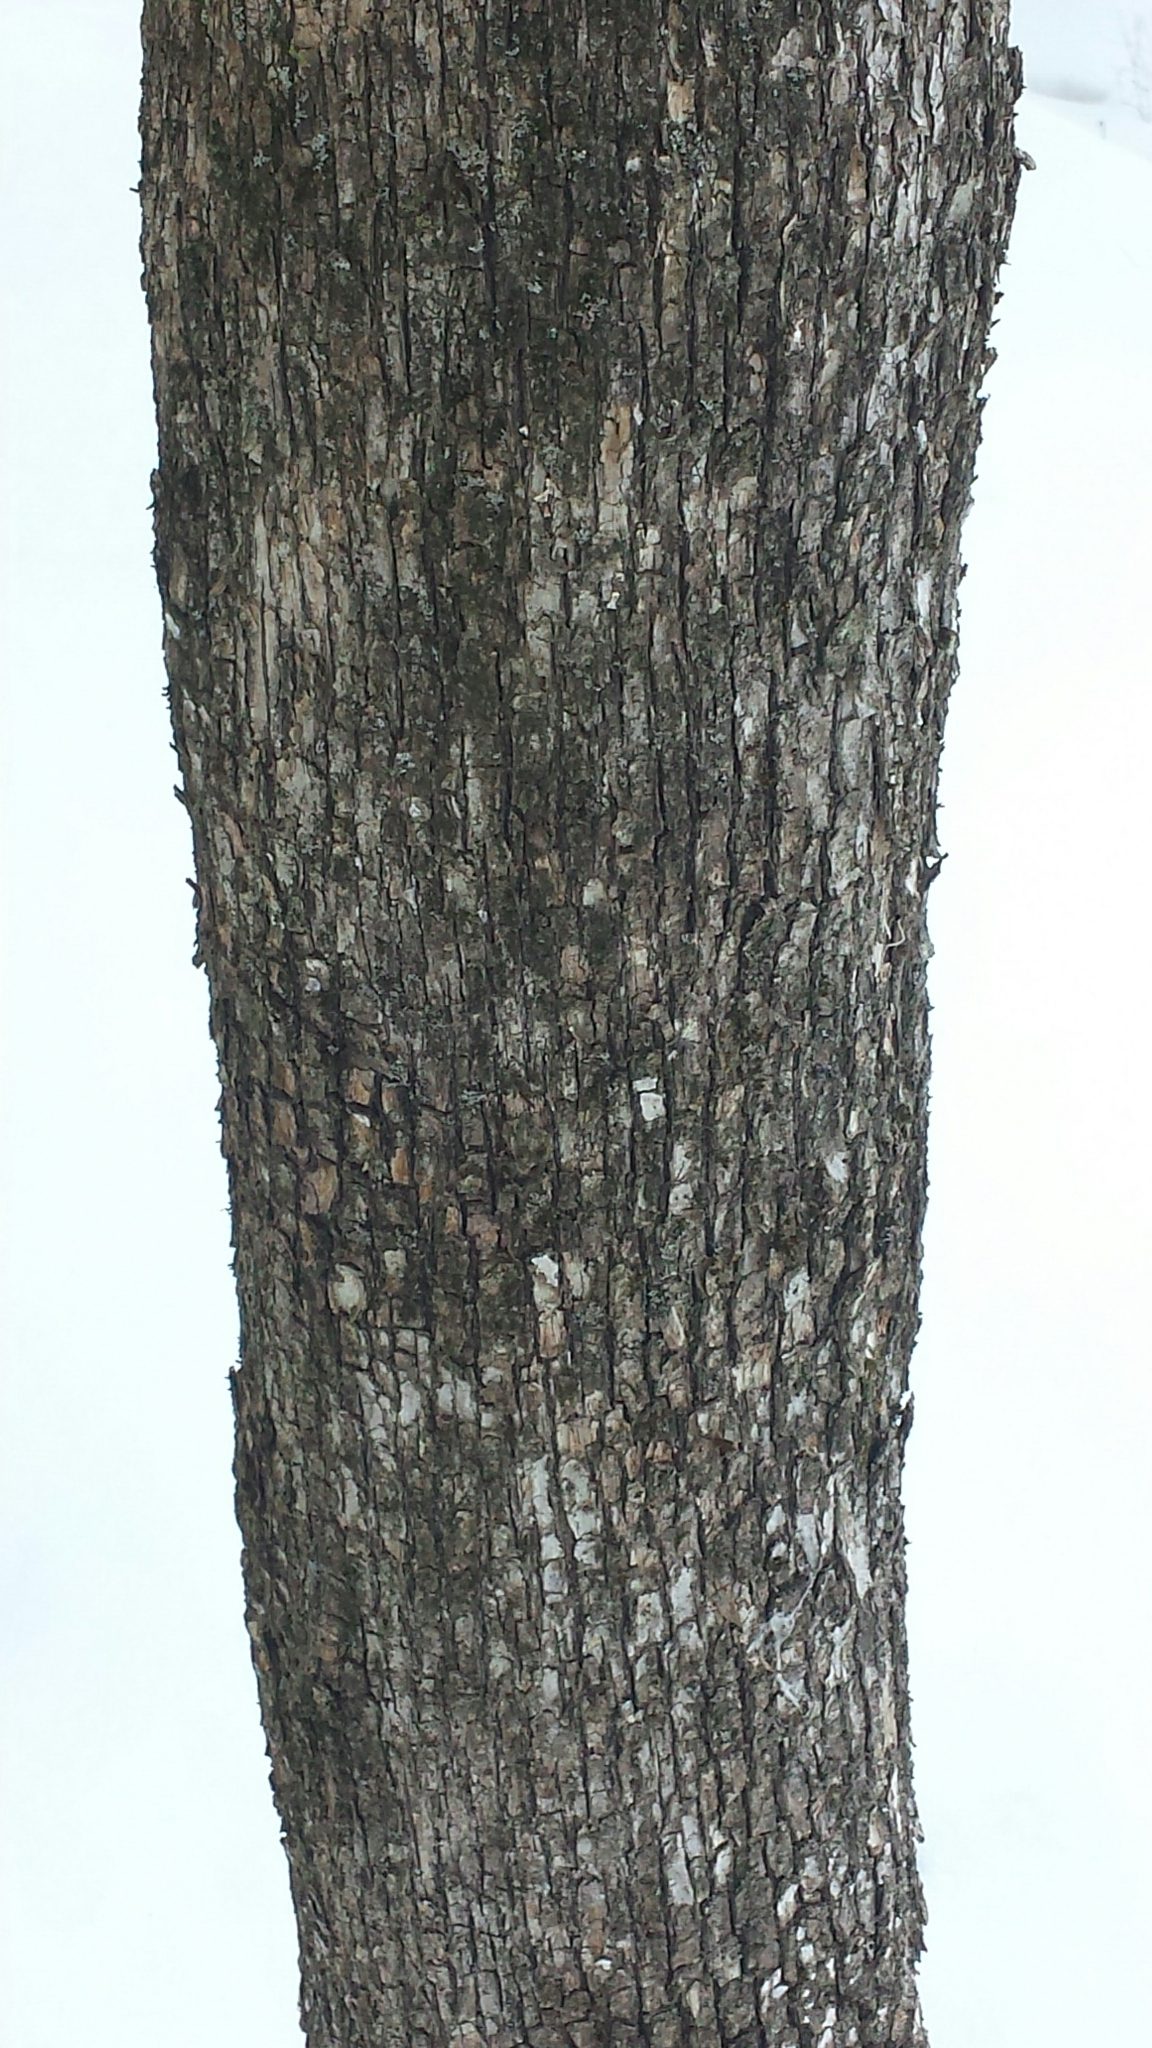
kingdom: Plantae
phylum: Tracheophyta
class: Magnoliopsida
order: Fagales
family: Betulaceae
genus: Ostrya
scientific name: Ostrya virginiana
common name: Ironwood
